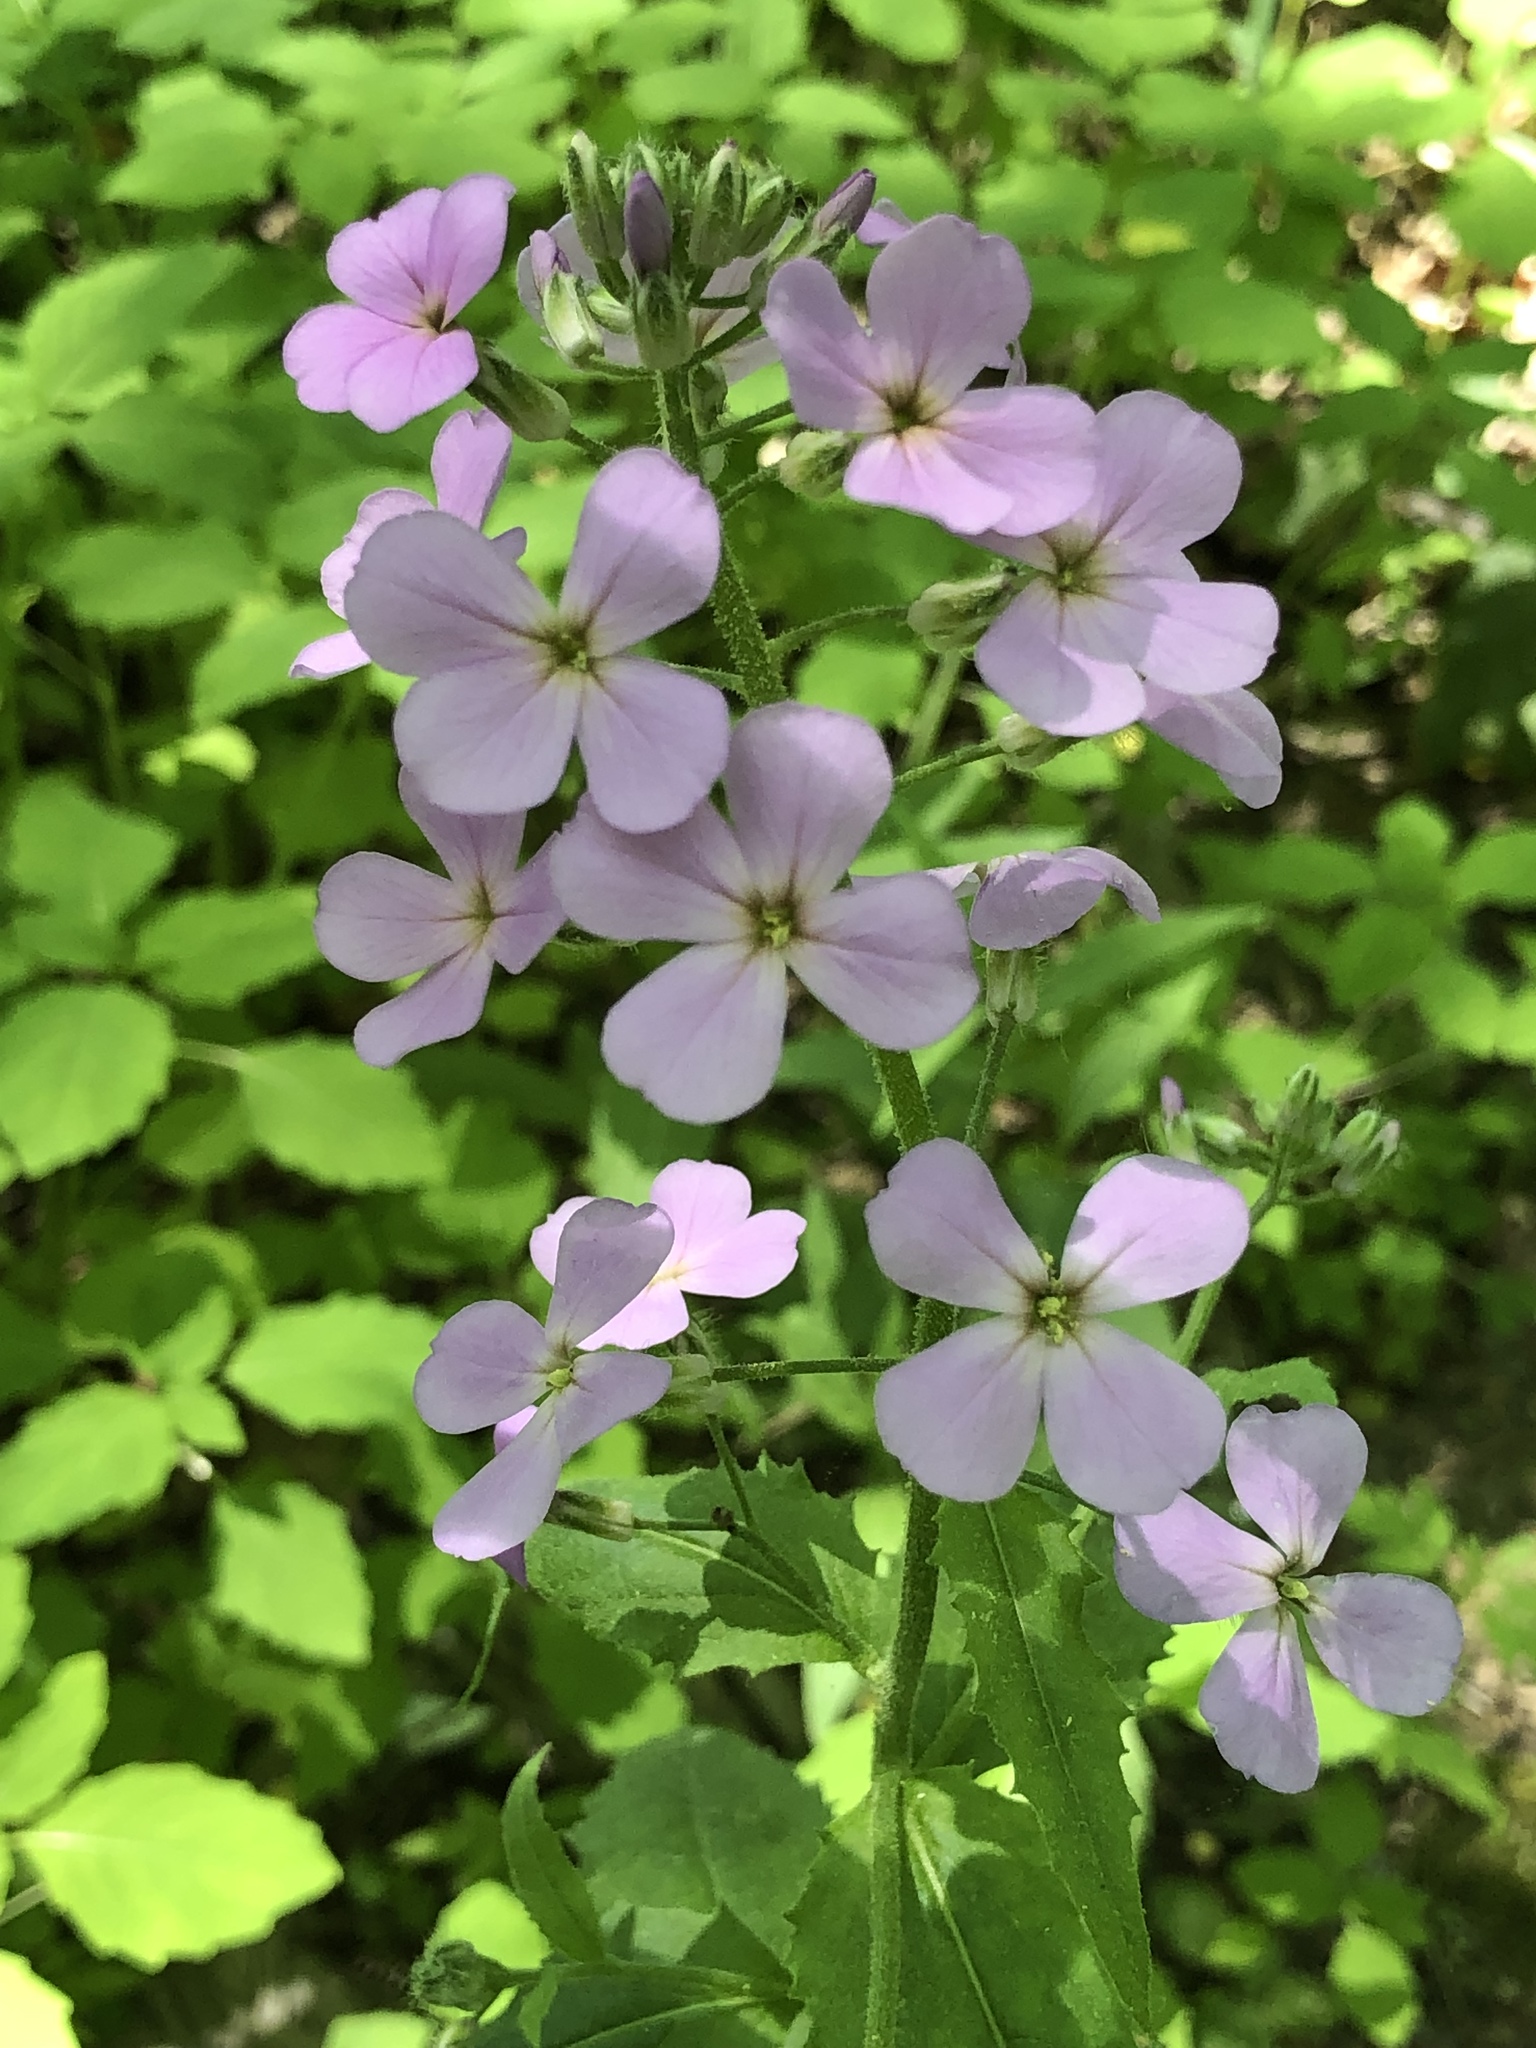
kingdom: Plantae
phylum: Tracheophyta
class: Magnoliopsida
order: Brassicales
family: Brassicaceae
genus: Hesperis
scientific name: Hesperis matronalis
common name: Dame's-violet
